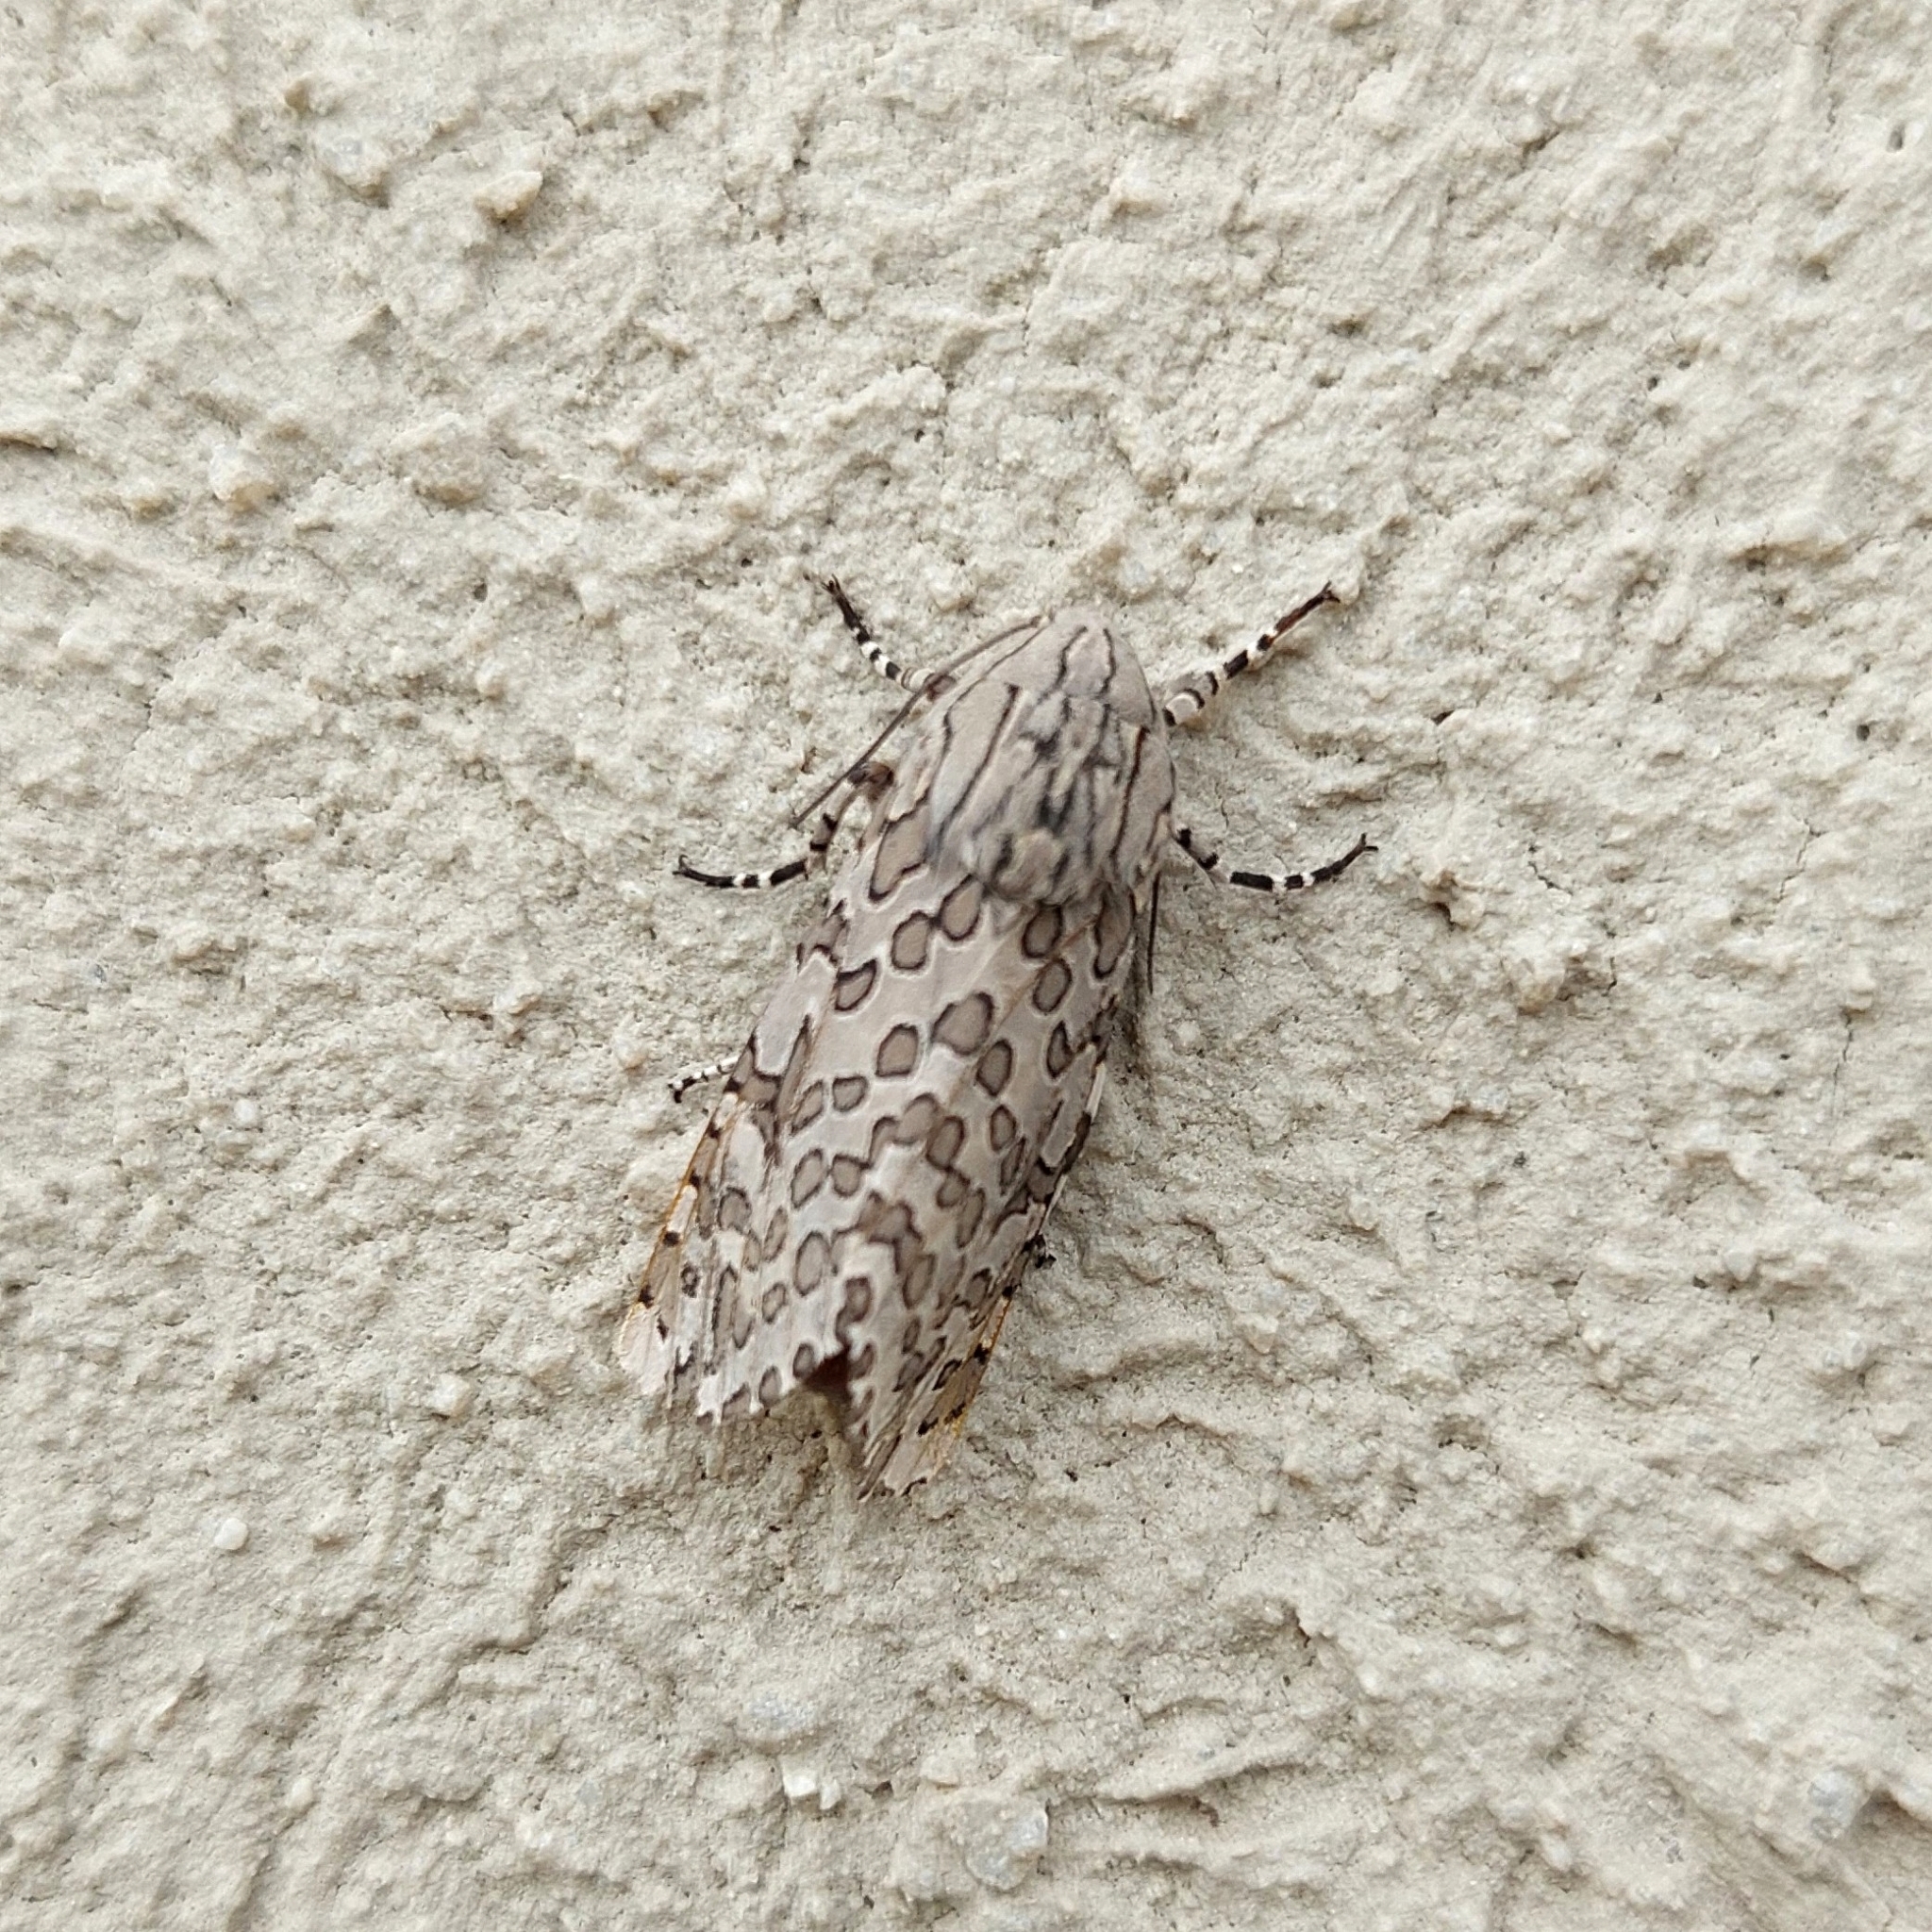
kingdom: Animalia
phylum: Arthropoda
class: Insecta
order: Lepidoptera
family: Erebidae
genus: Hypercompe
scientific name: Hypercompe indecisa
